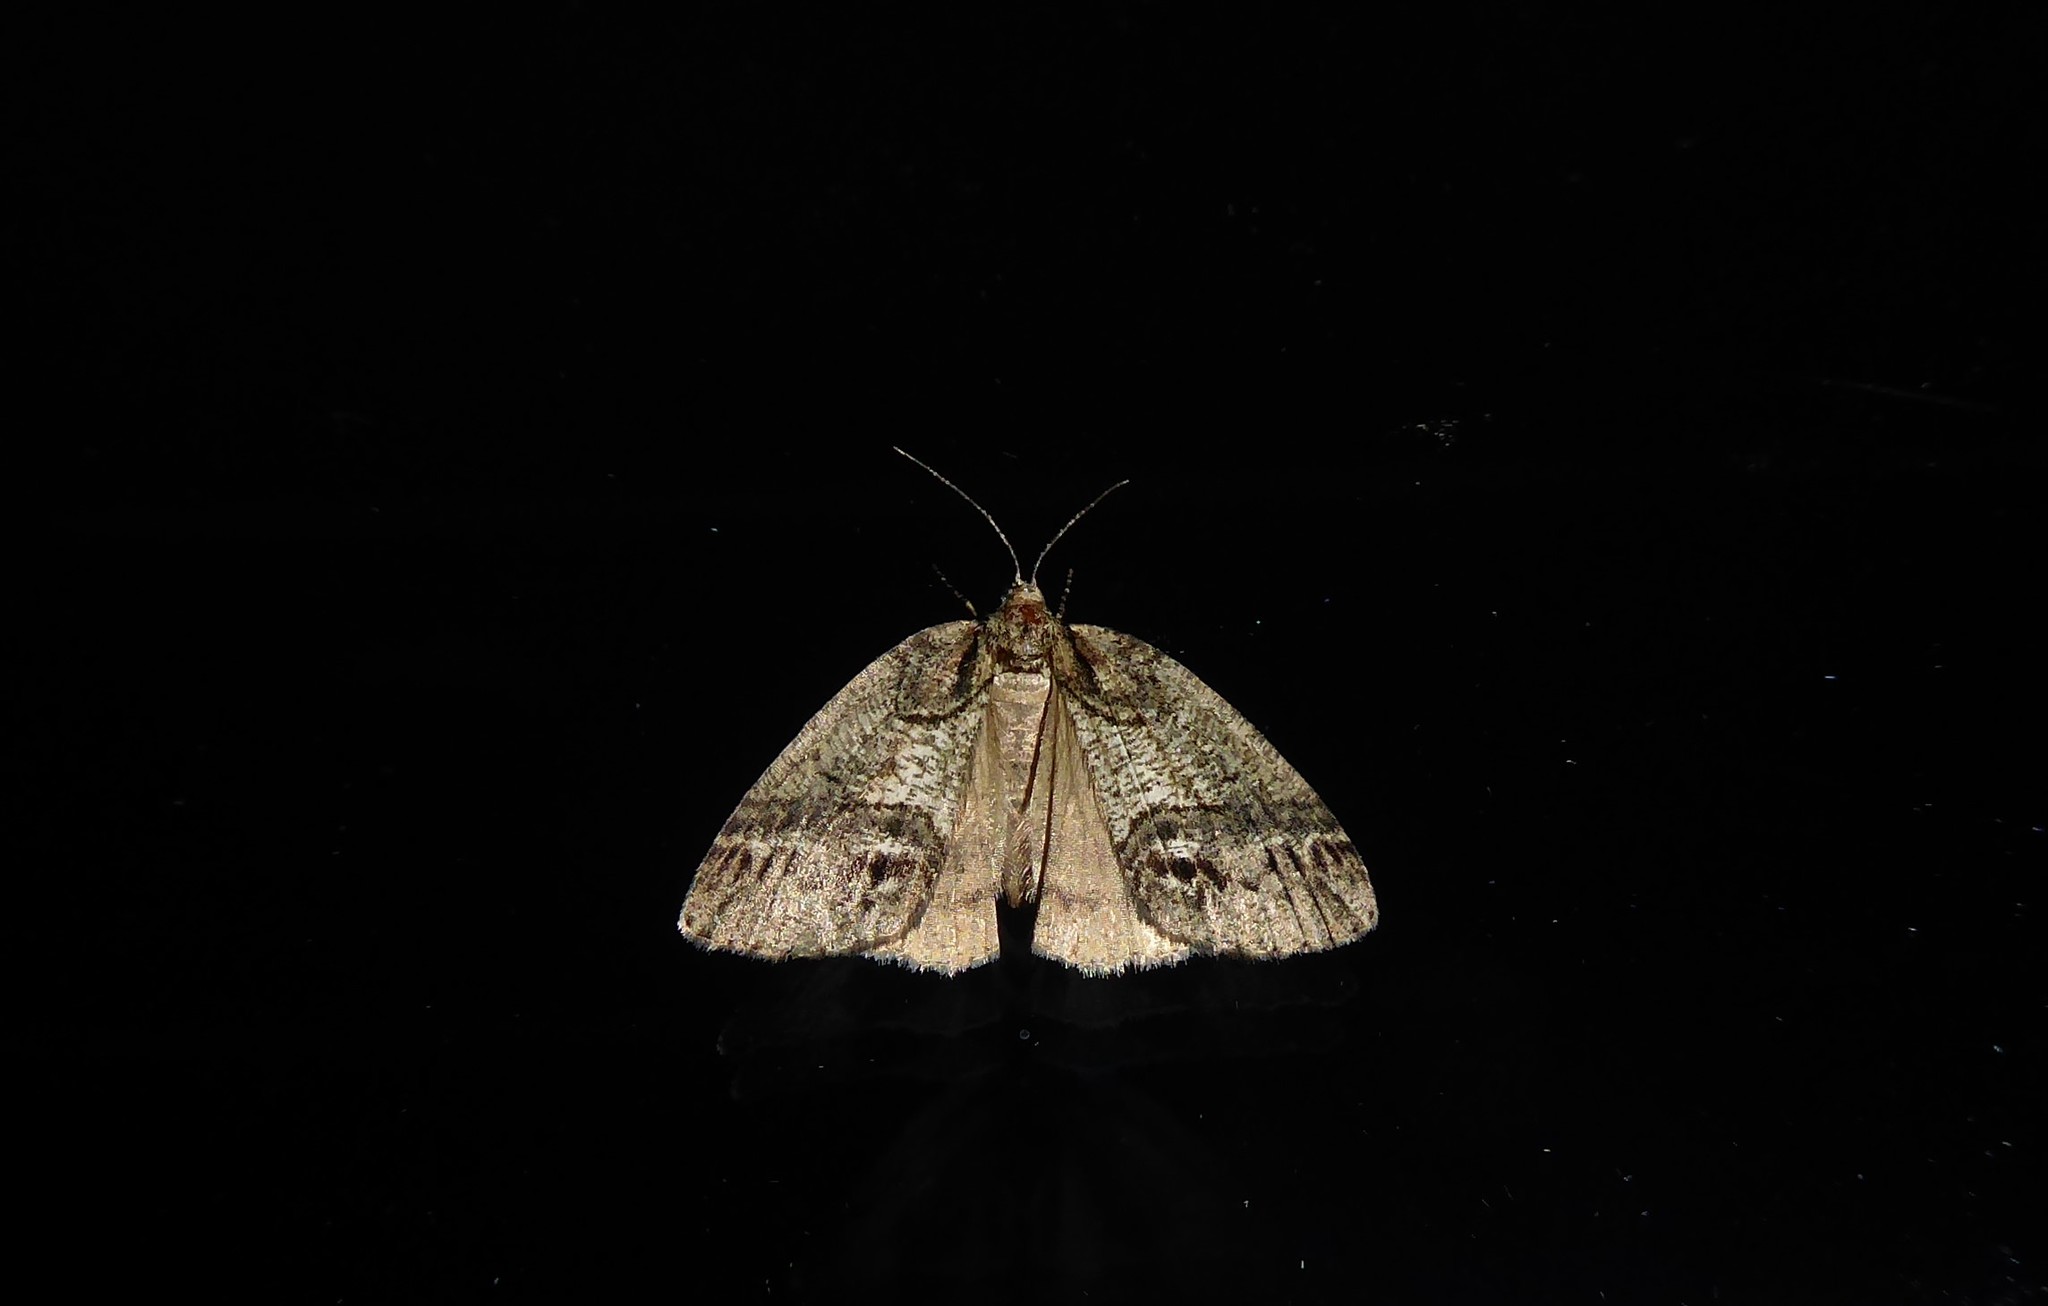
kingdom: Animalia
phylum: Arthropoda
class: Insecta
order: Lepidoptera
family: Geometridae
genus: Chalastra
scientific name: Chalastra ochrea
